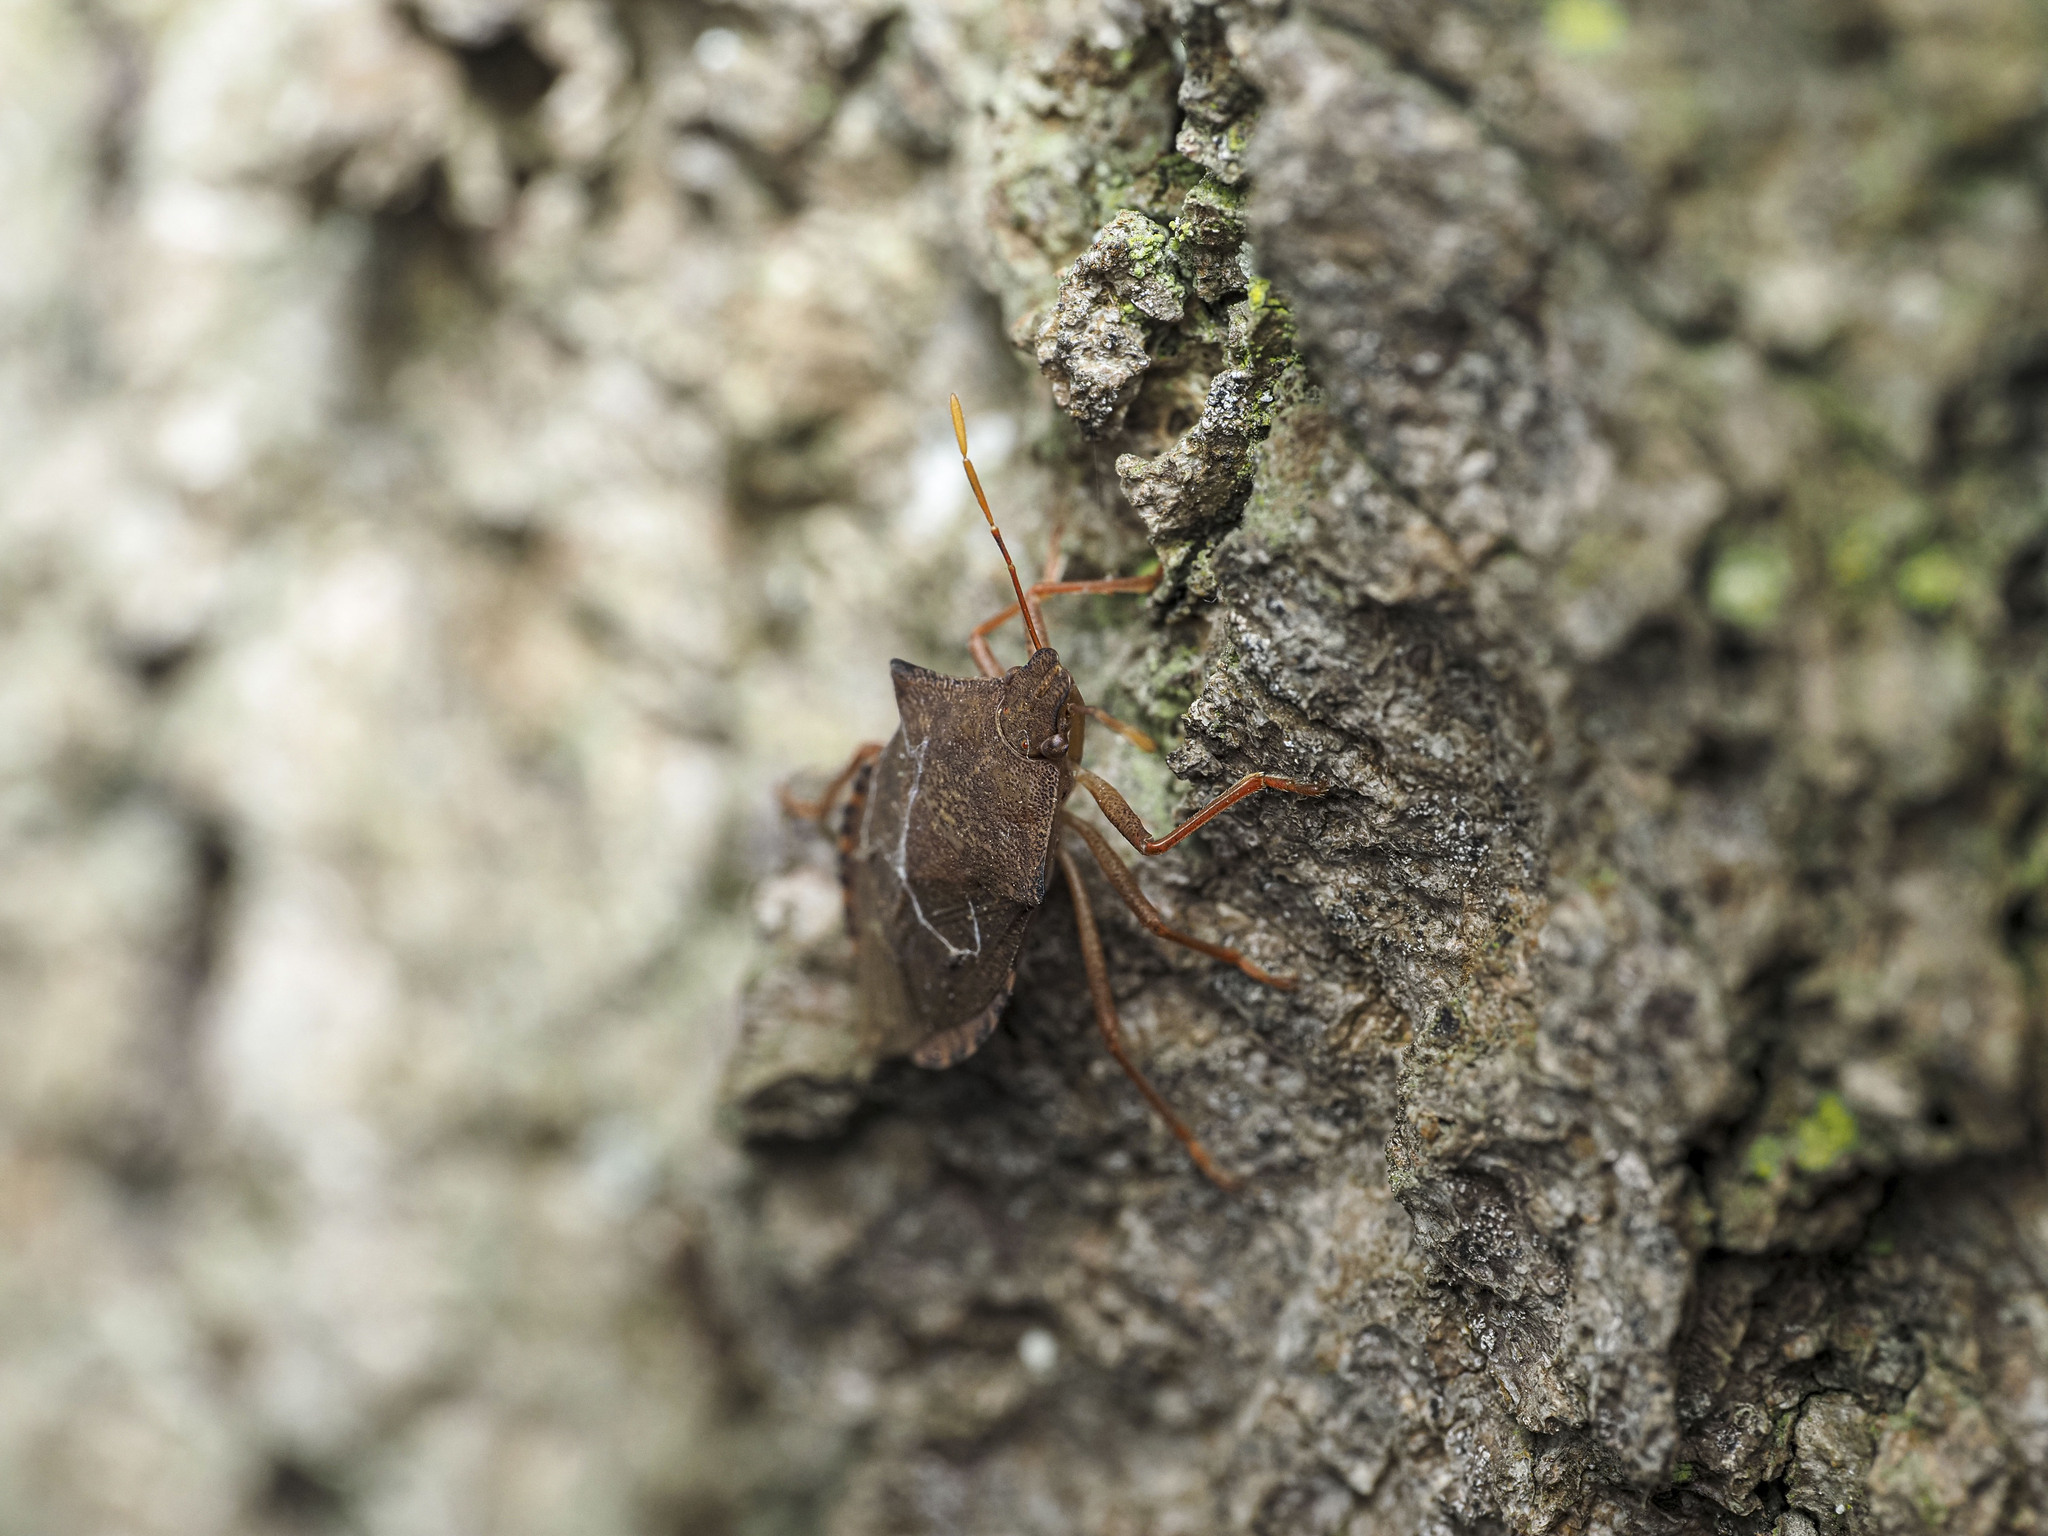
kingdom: Animalia
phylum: Arthropoda
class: Insecta
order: Hemiptera
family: Pentatomidae
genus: Arma
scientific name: Arma custos
